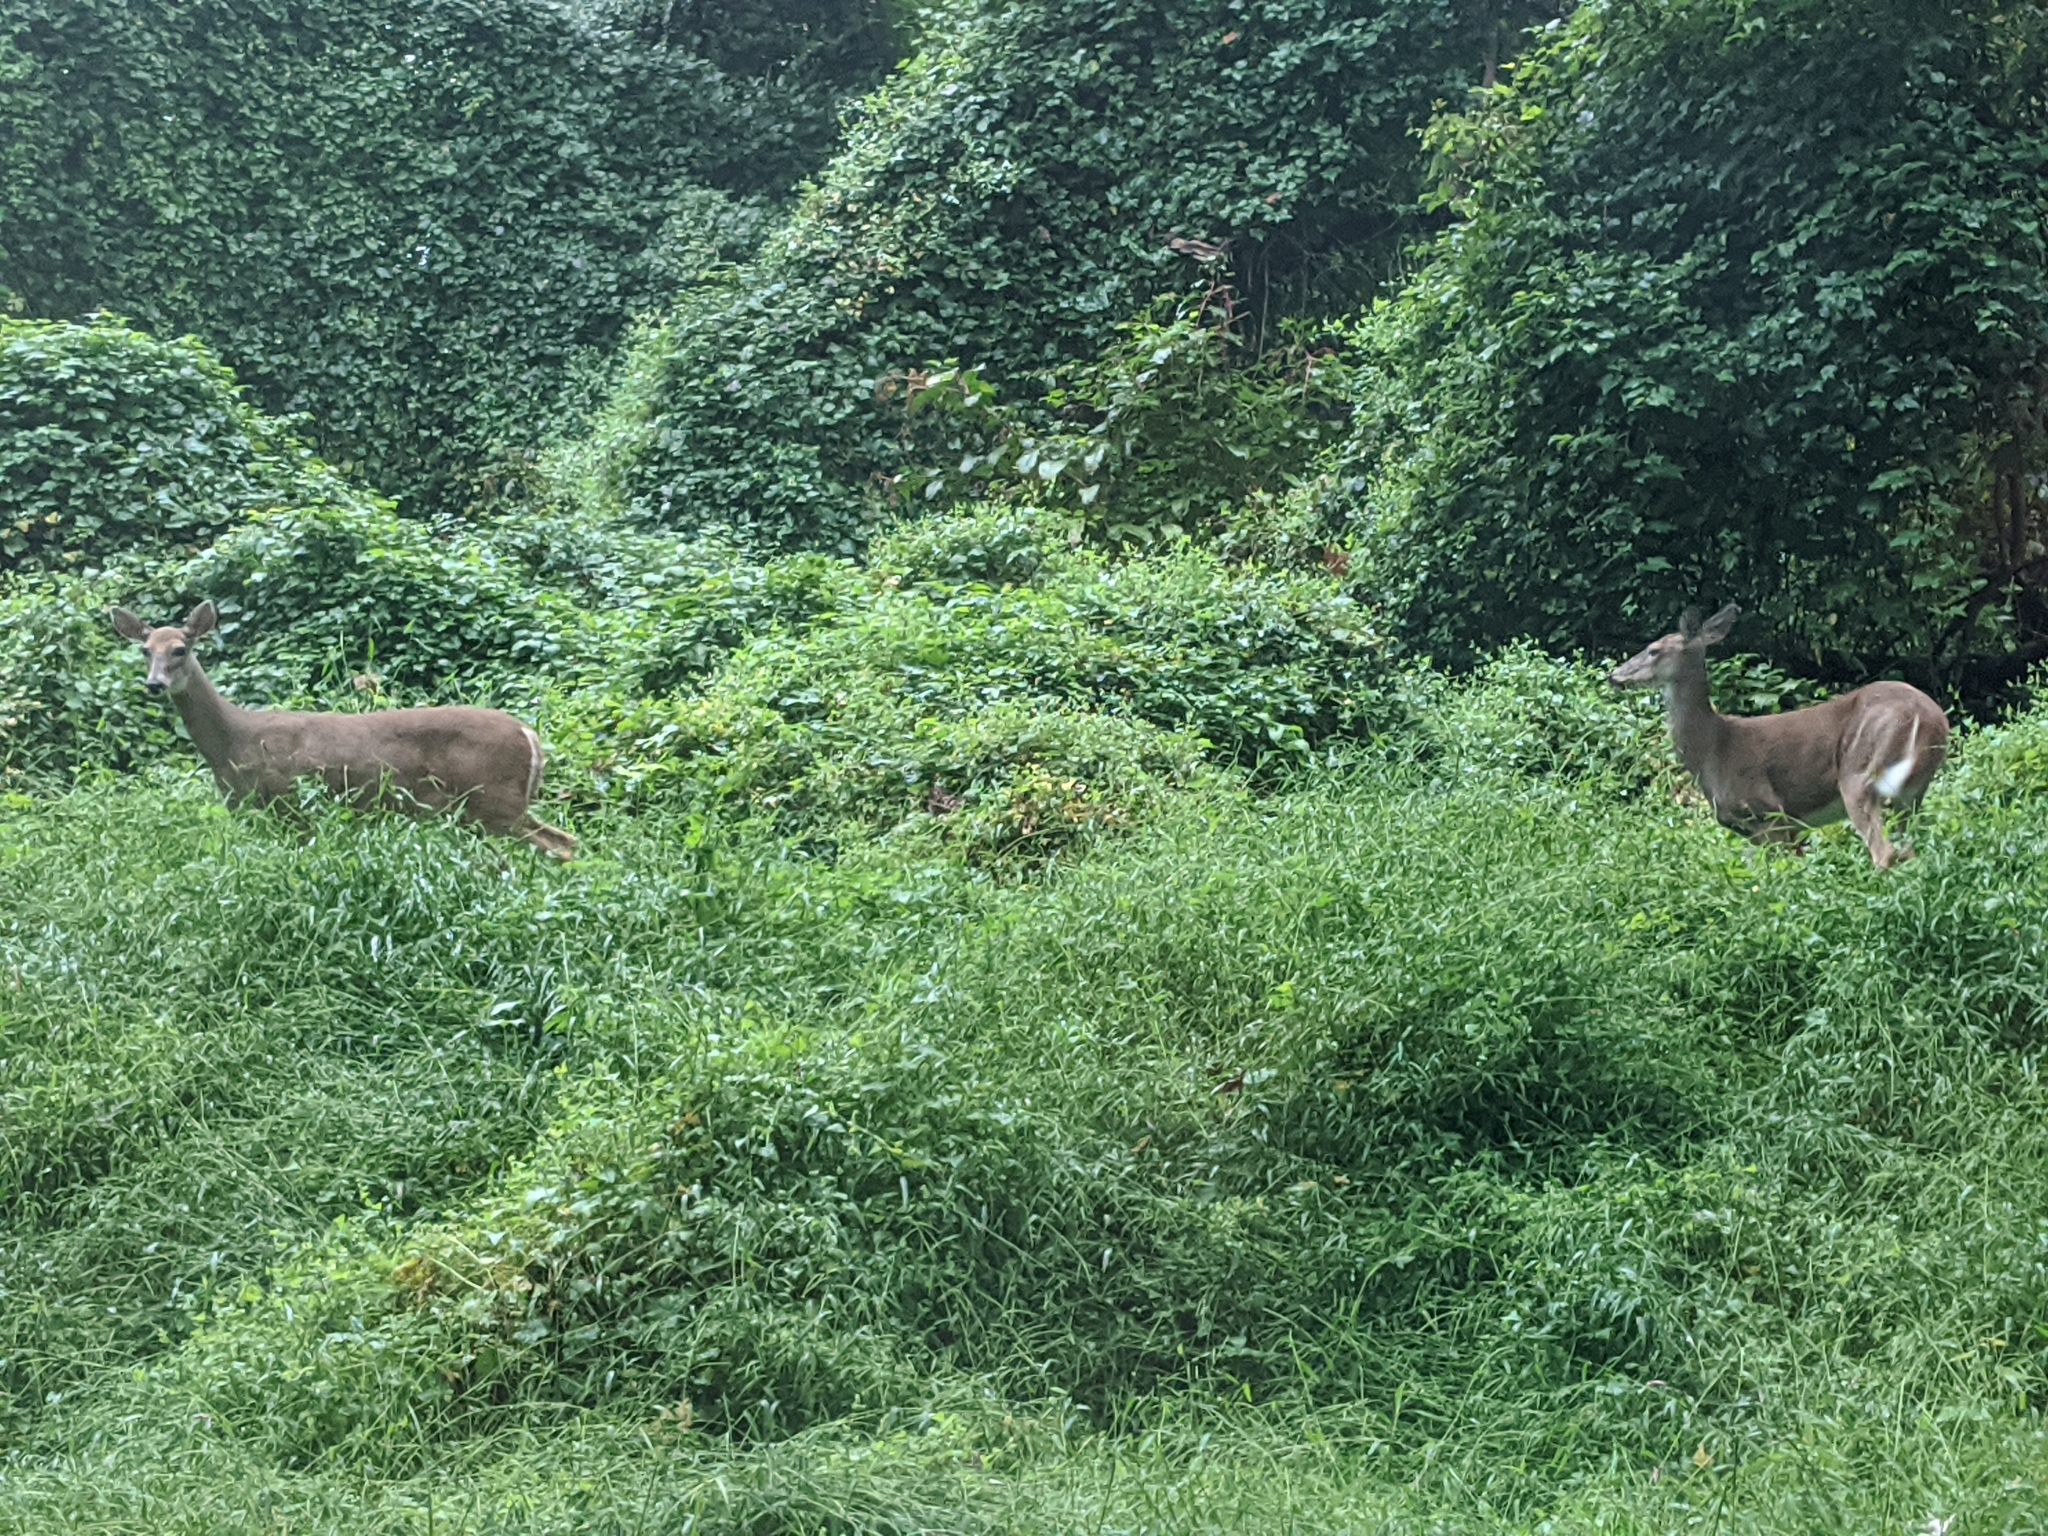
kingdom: Animalia
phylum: Chordata
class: Mammalia
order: Artiodactyla
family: Cervidae
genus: Odocoileus
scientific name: Odocoileus virginianus
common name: White-tailed deer
